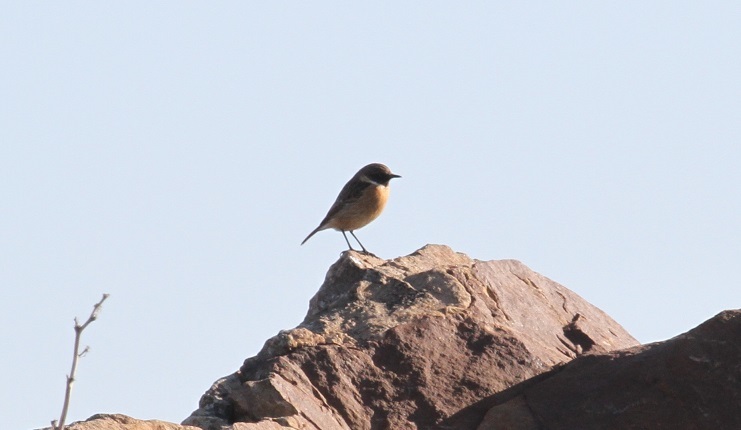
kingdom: Animalia
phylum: Chordata
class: Aves
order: Passeriformes
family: Muscicapidae
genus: Saxicola
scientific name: Saxicola rubicola
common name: European stonechat
